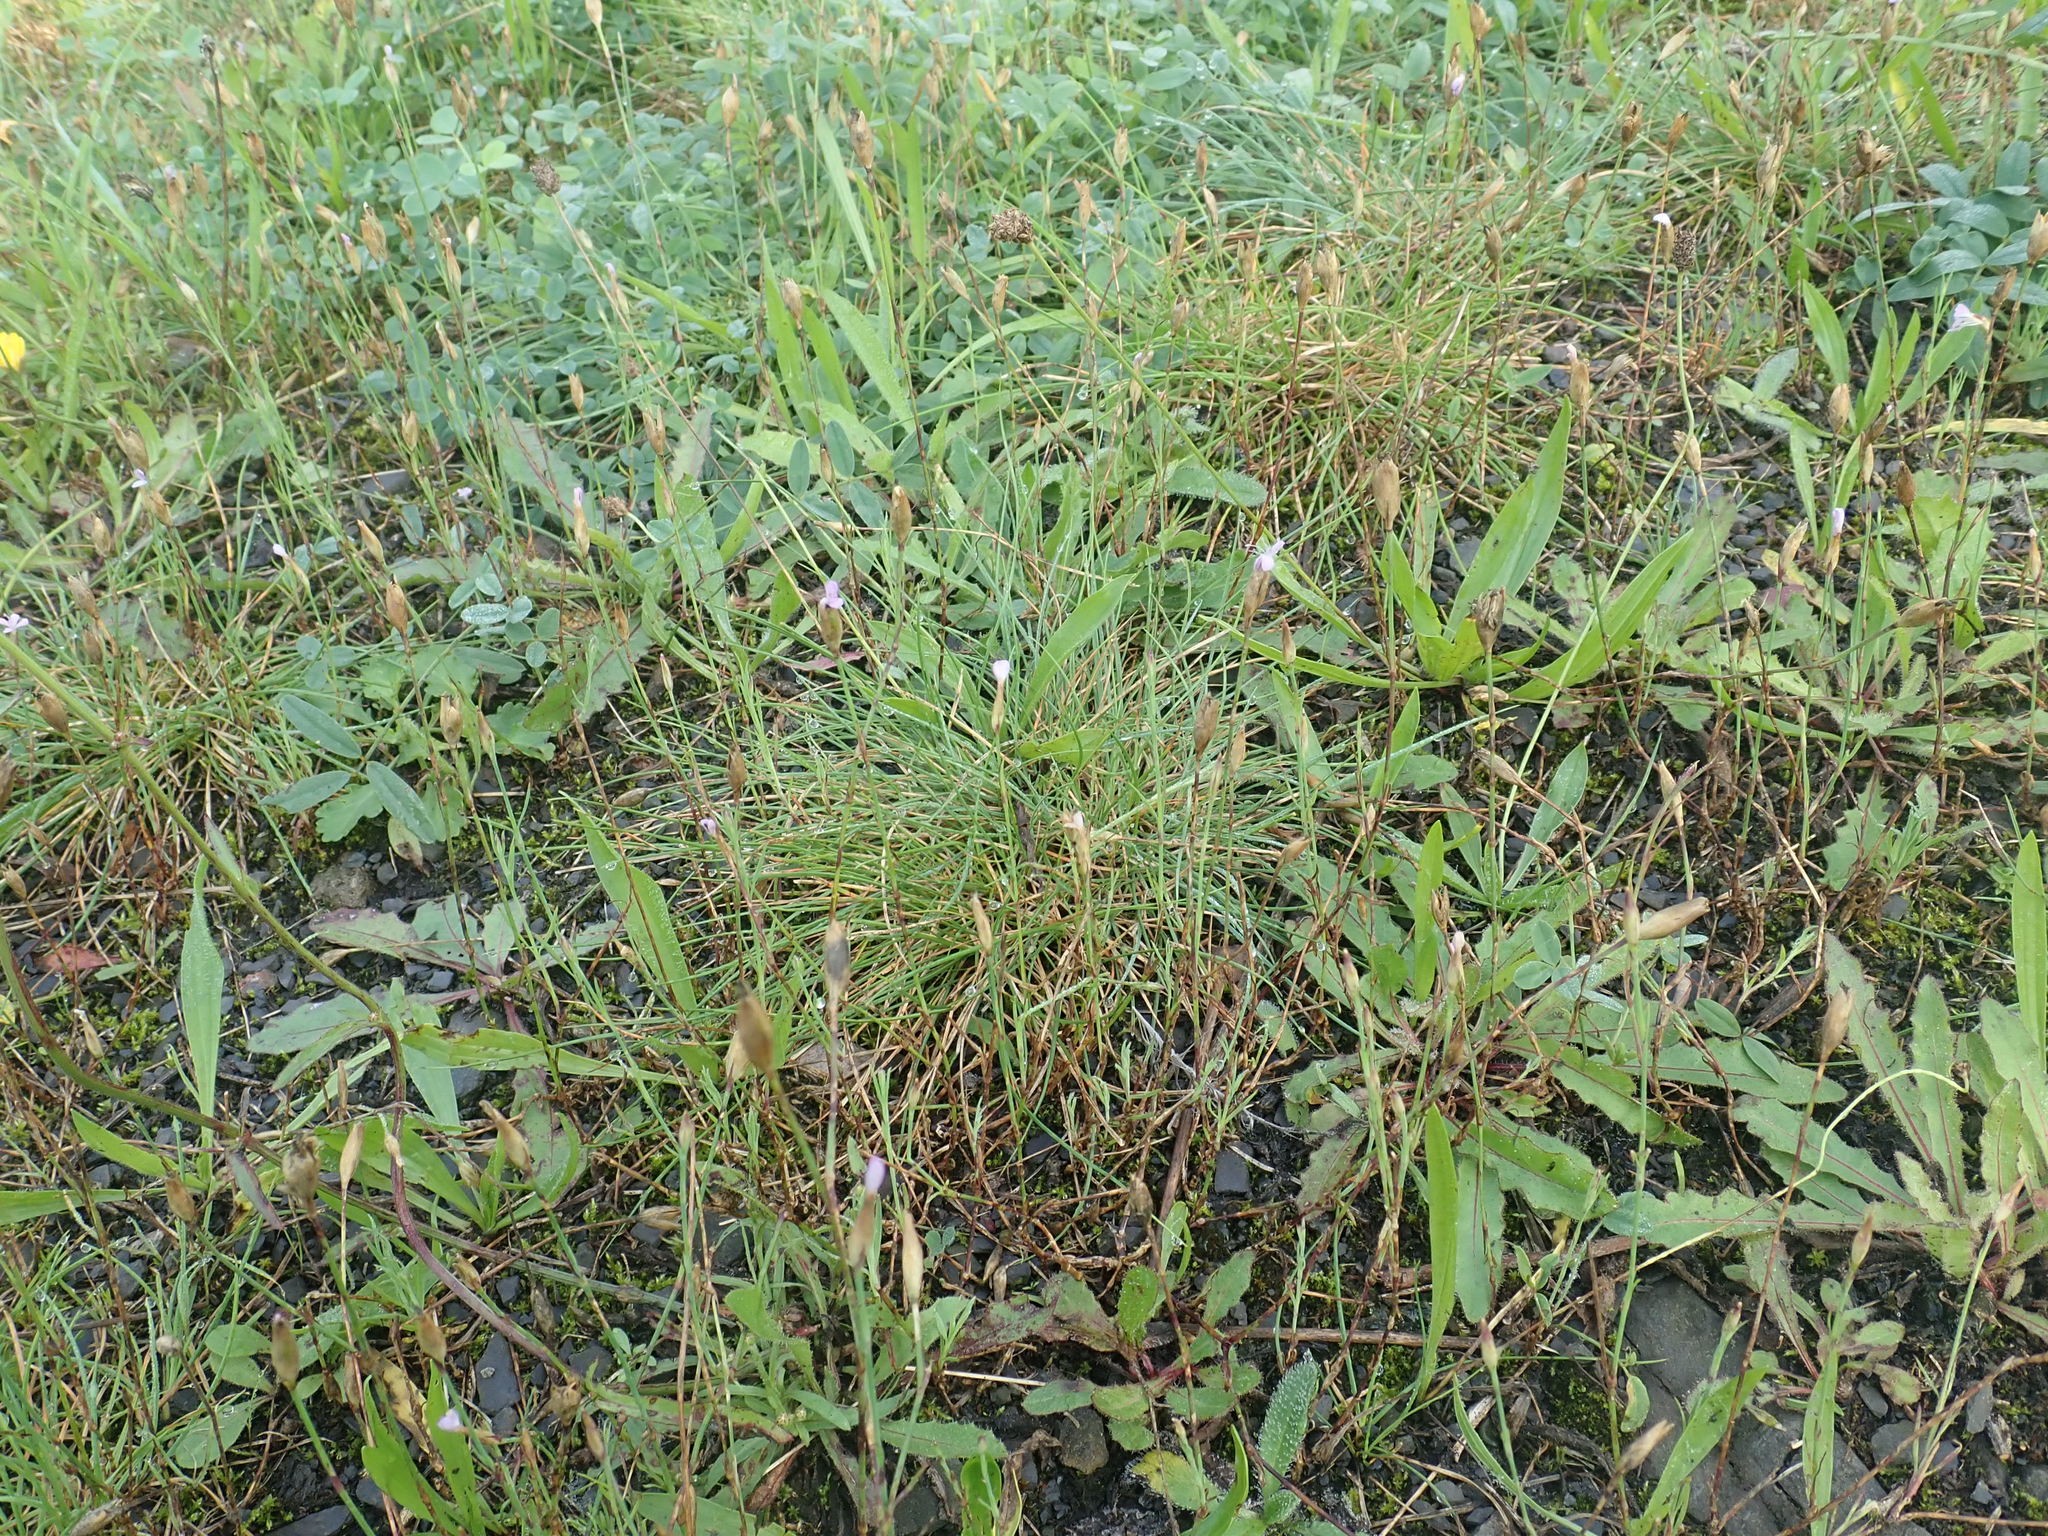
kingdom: Plantae
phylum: Tracheophyta
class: Magnoliopsida
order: Caryophyllales
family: Caryophyllaceae
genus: Petrorhagia
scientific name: Petrorhagia prolifera
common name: Proliferous pink
